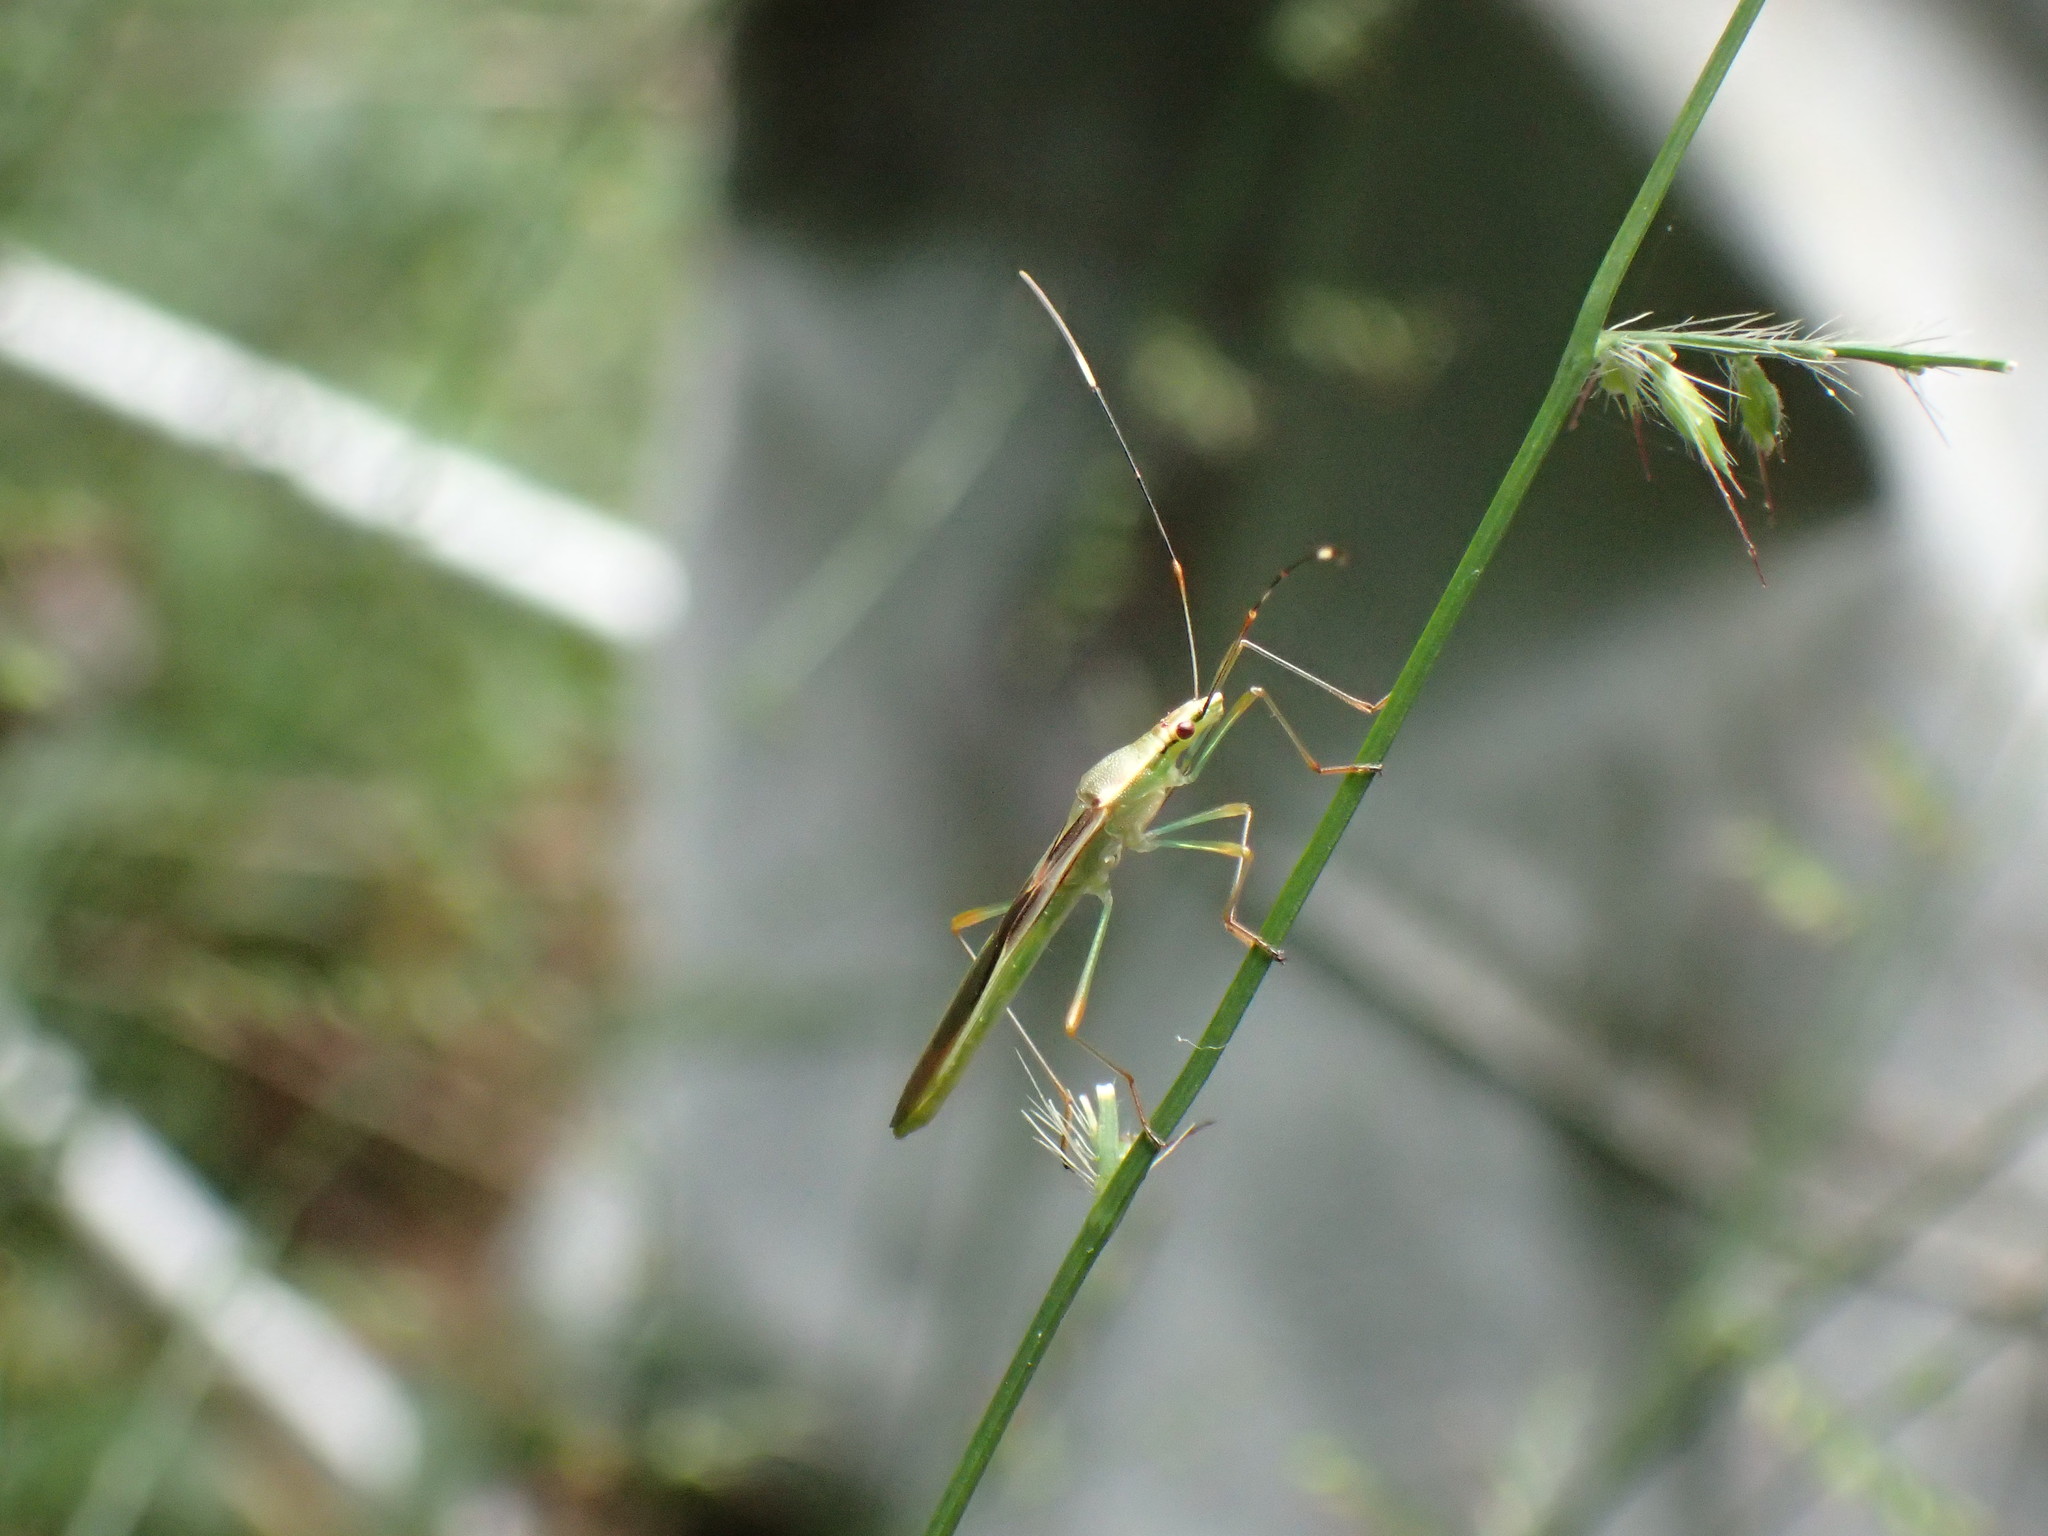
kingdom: Animalia
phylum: Arthropoda
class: Insecta
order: Hemiptera
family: Alydidae
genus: Stenocoris
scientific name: Stenocoris apicalis
